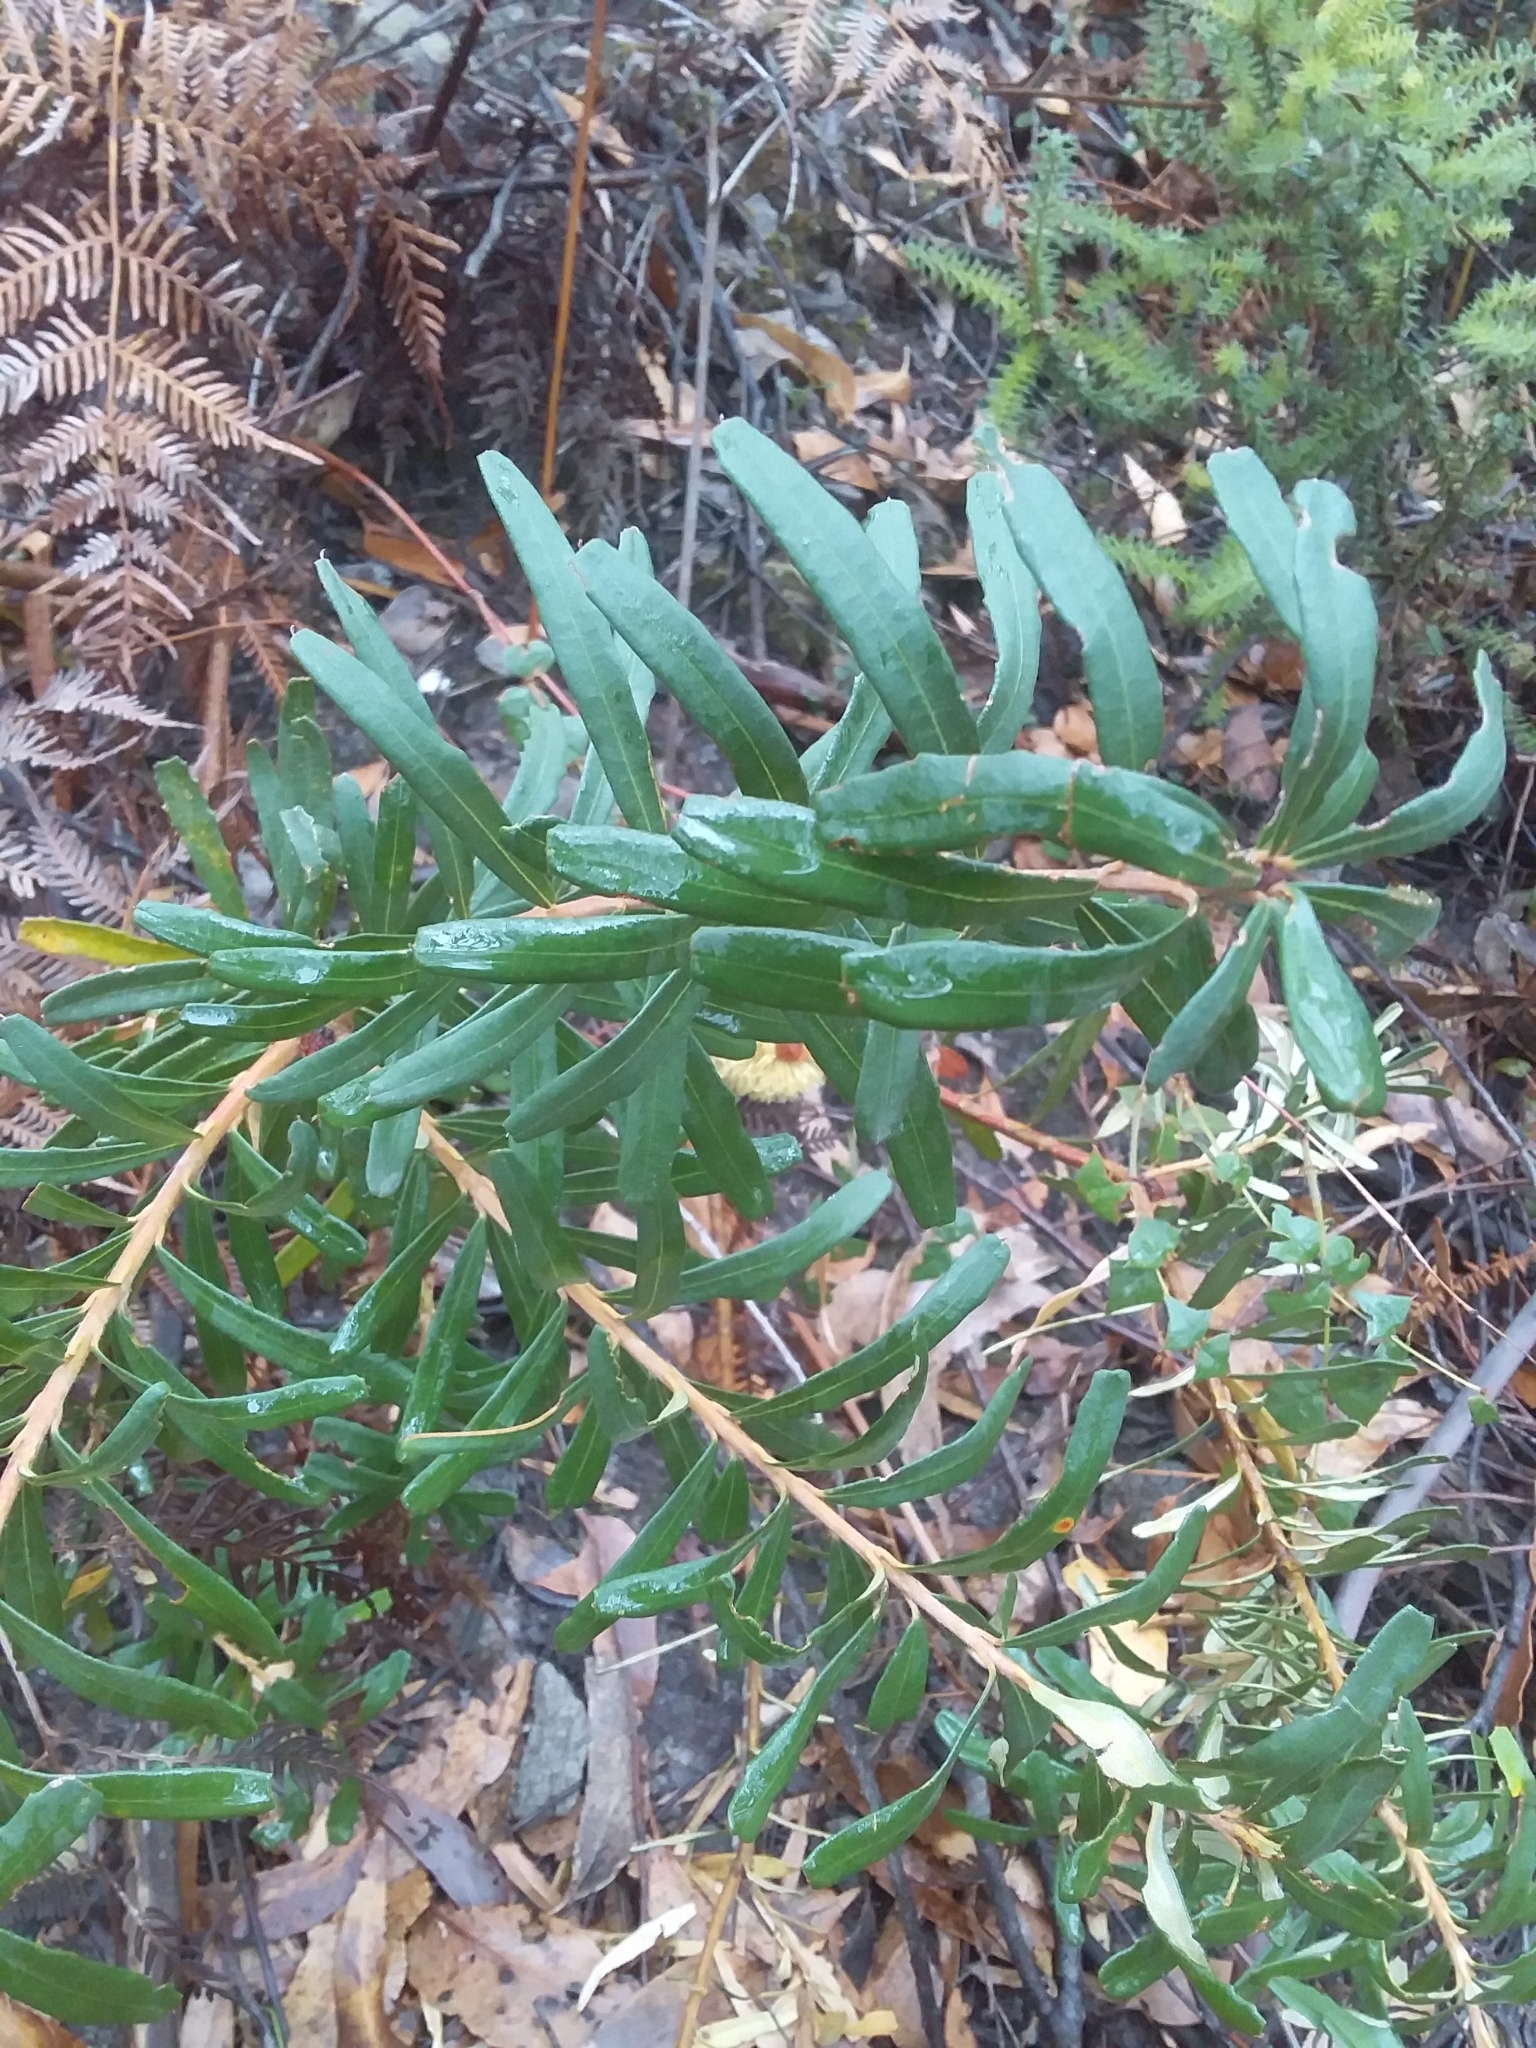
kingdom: Plantae
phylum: Tracheophyta
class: Magnoliopsida
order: Proteales
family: Proteaceae
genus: Banksia
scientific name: Banksia marginata
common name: Silver banksia
